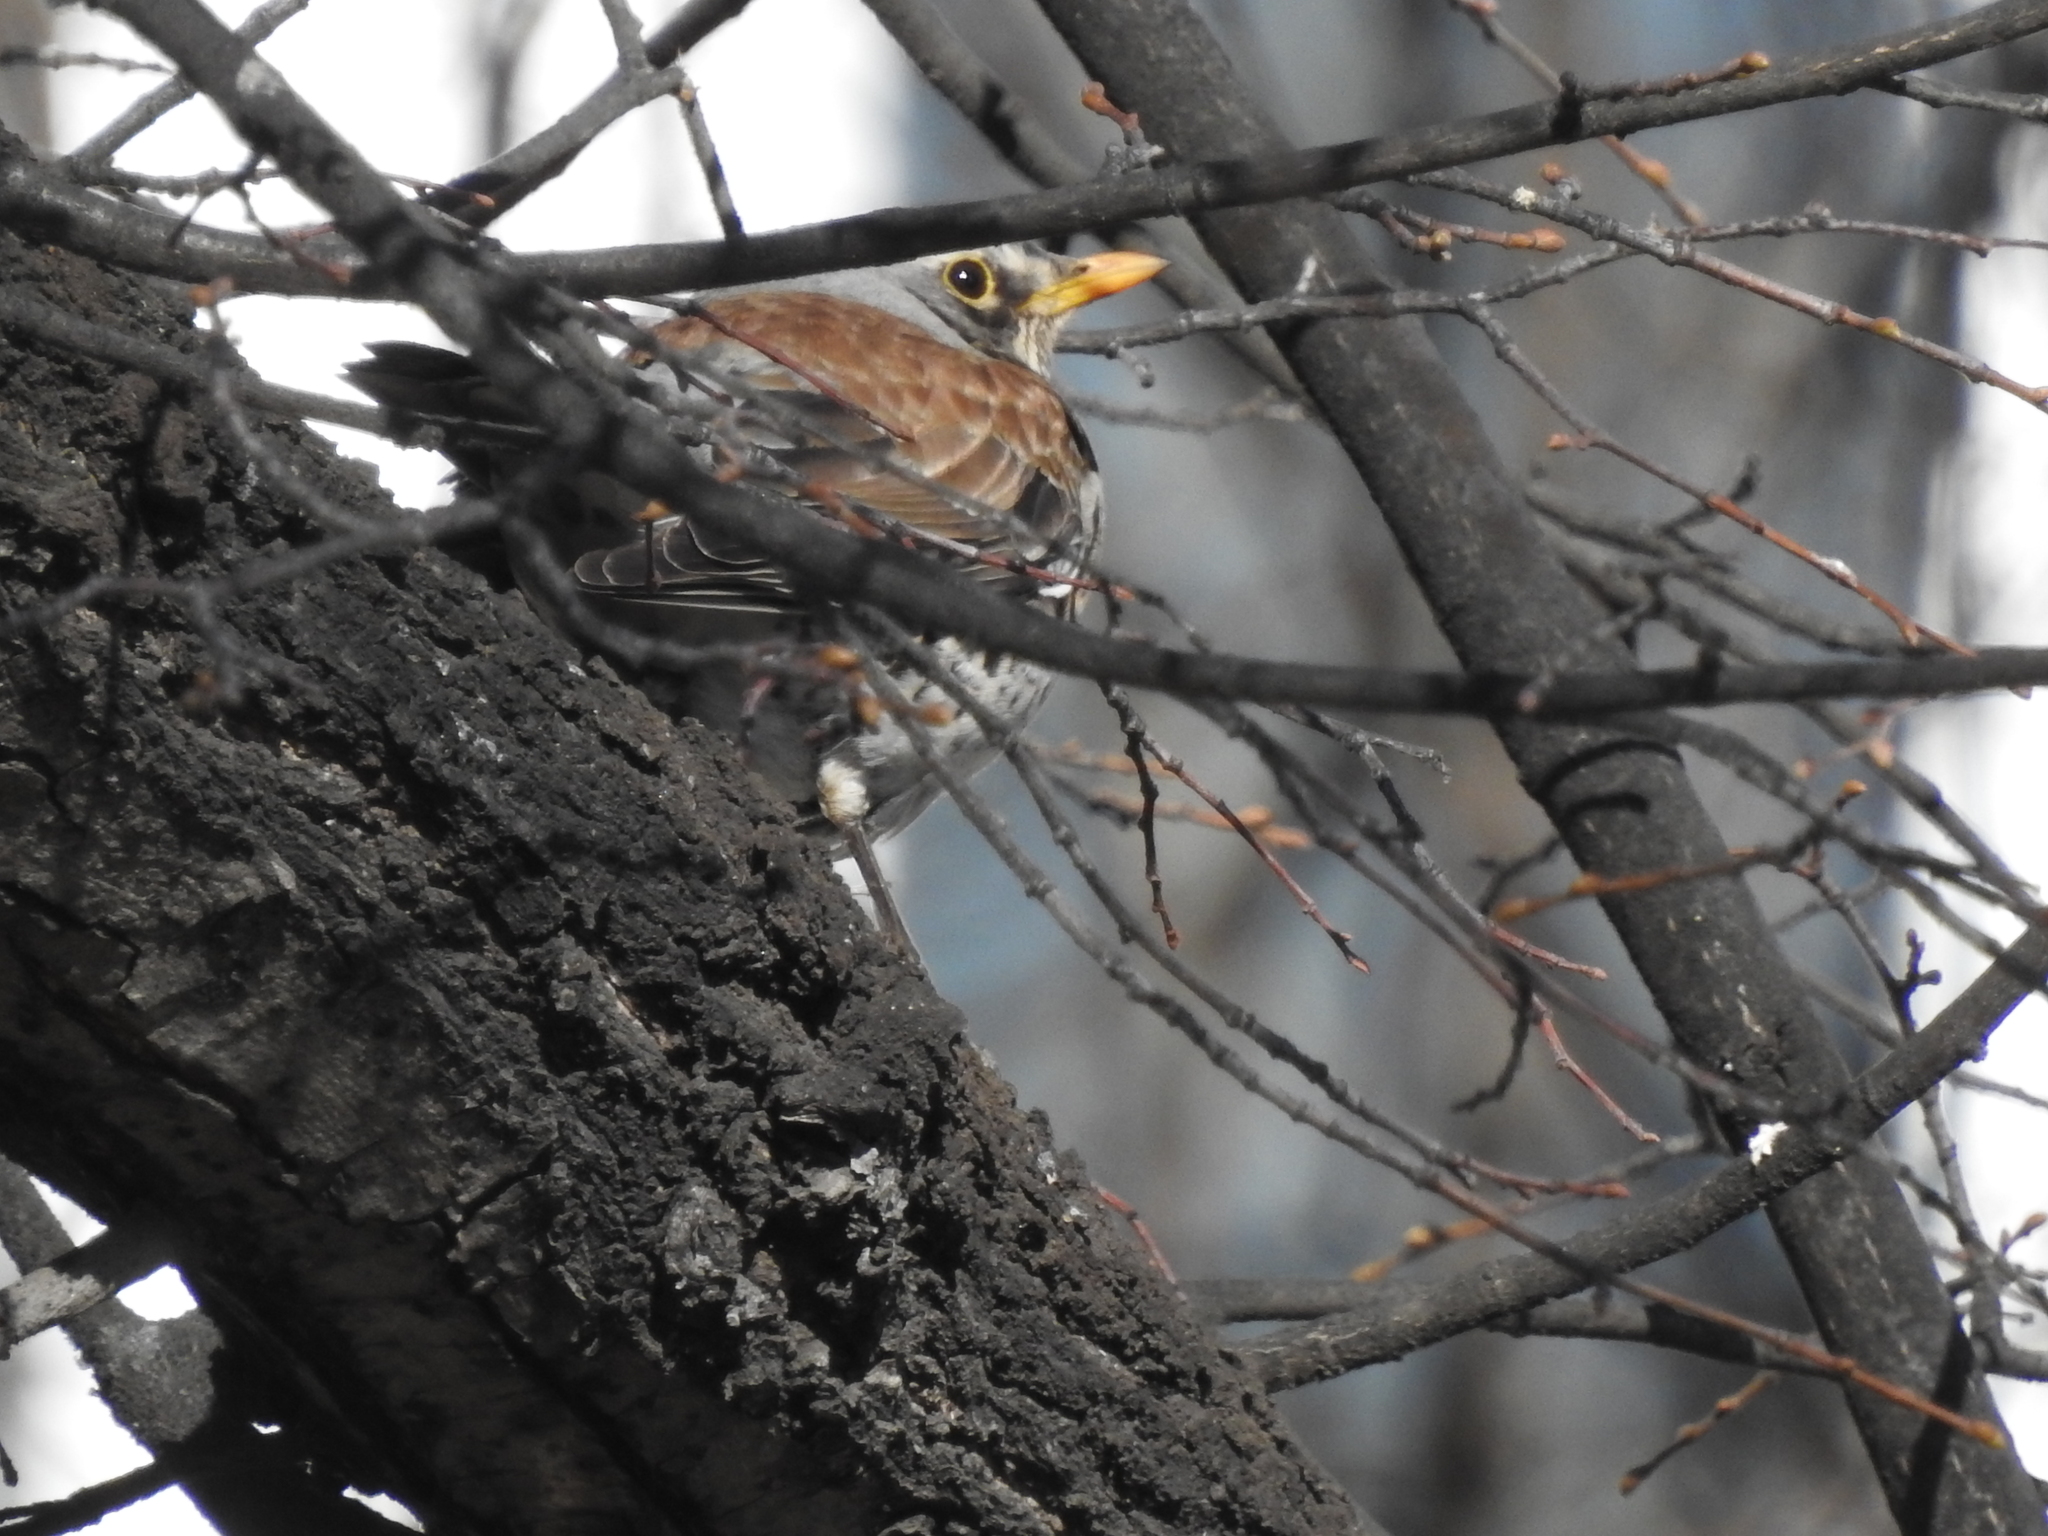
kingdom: Animalia
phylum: Chordata
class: Aves
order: Passeriformes
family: Turdidae
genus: Turdus
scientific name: Turdus pilaris
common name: Fieldfare
